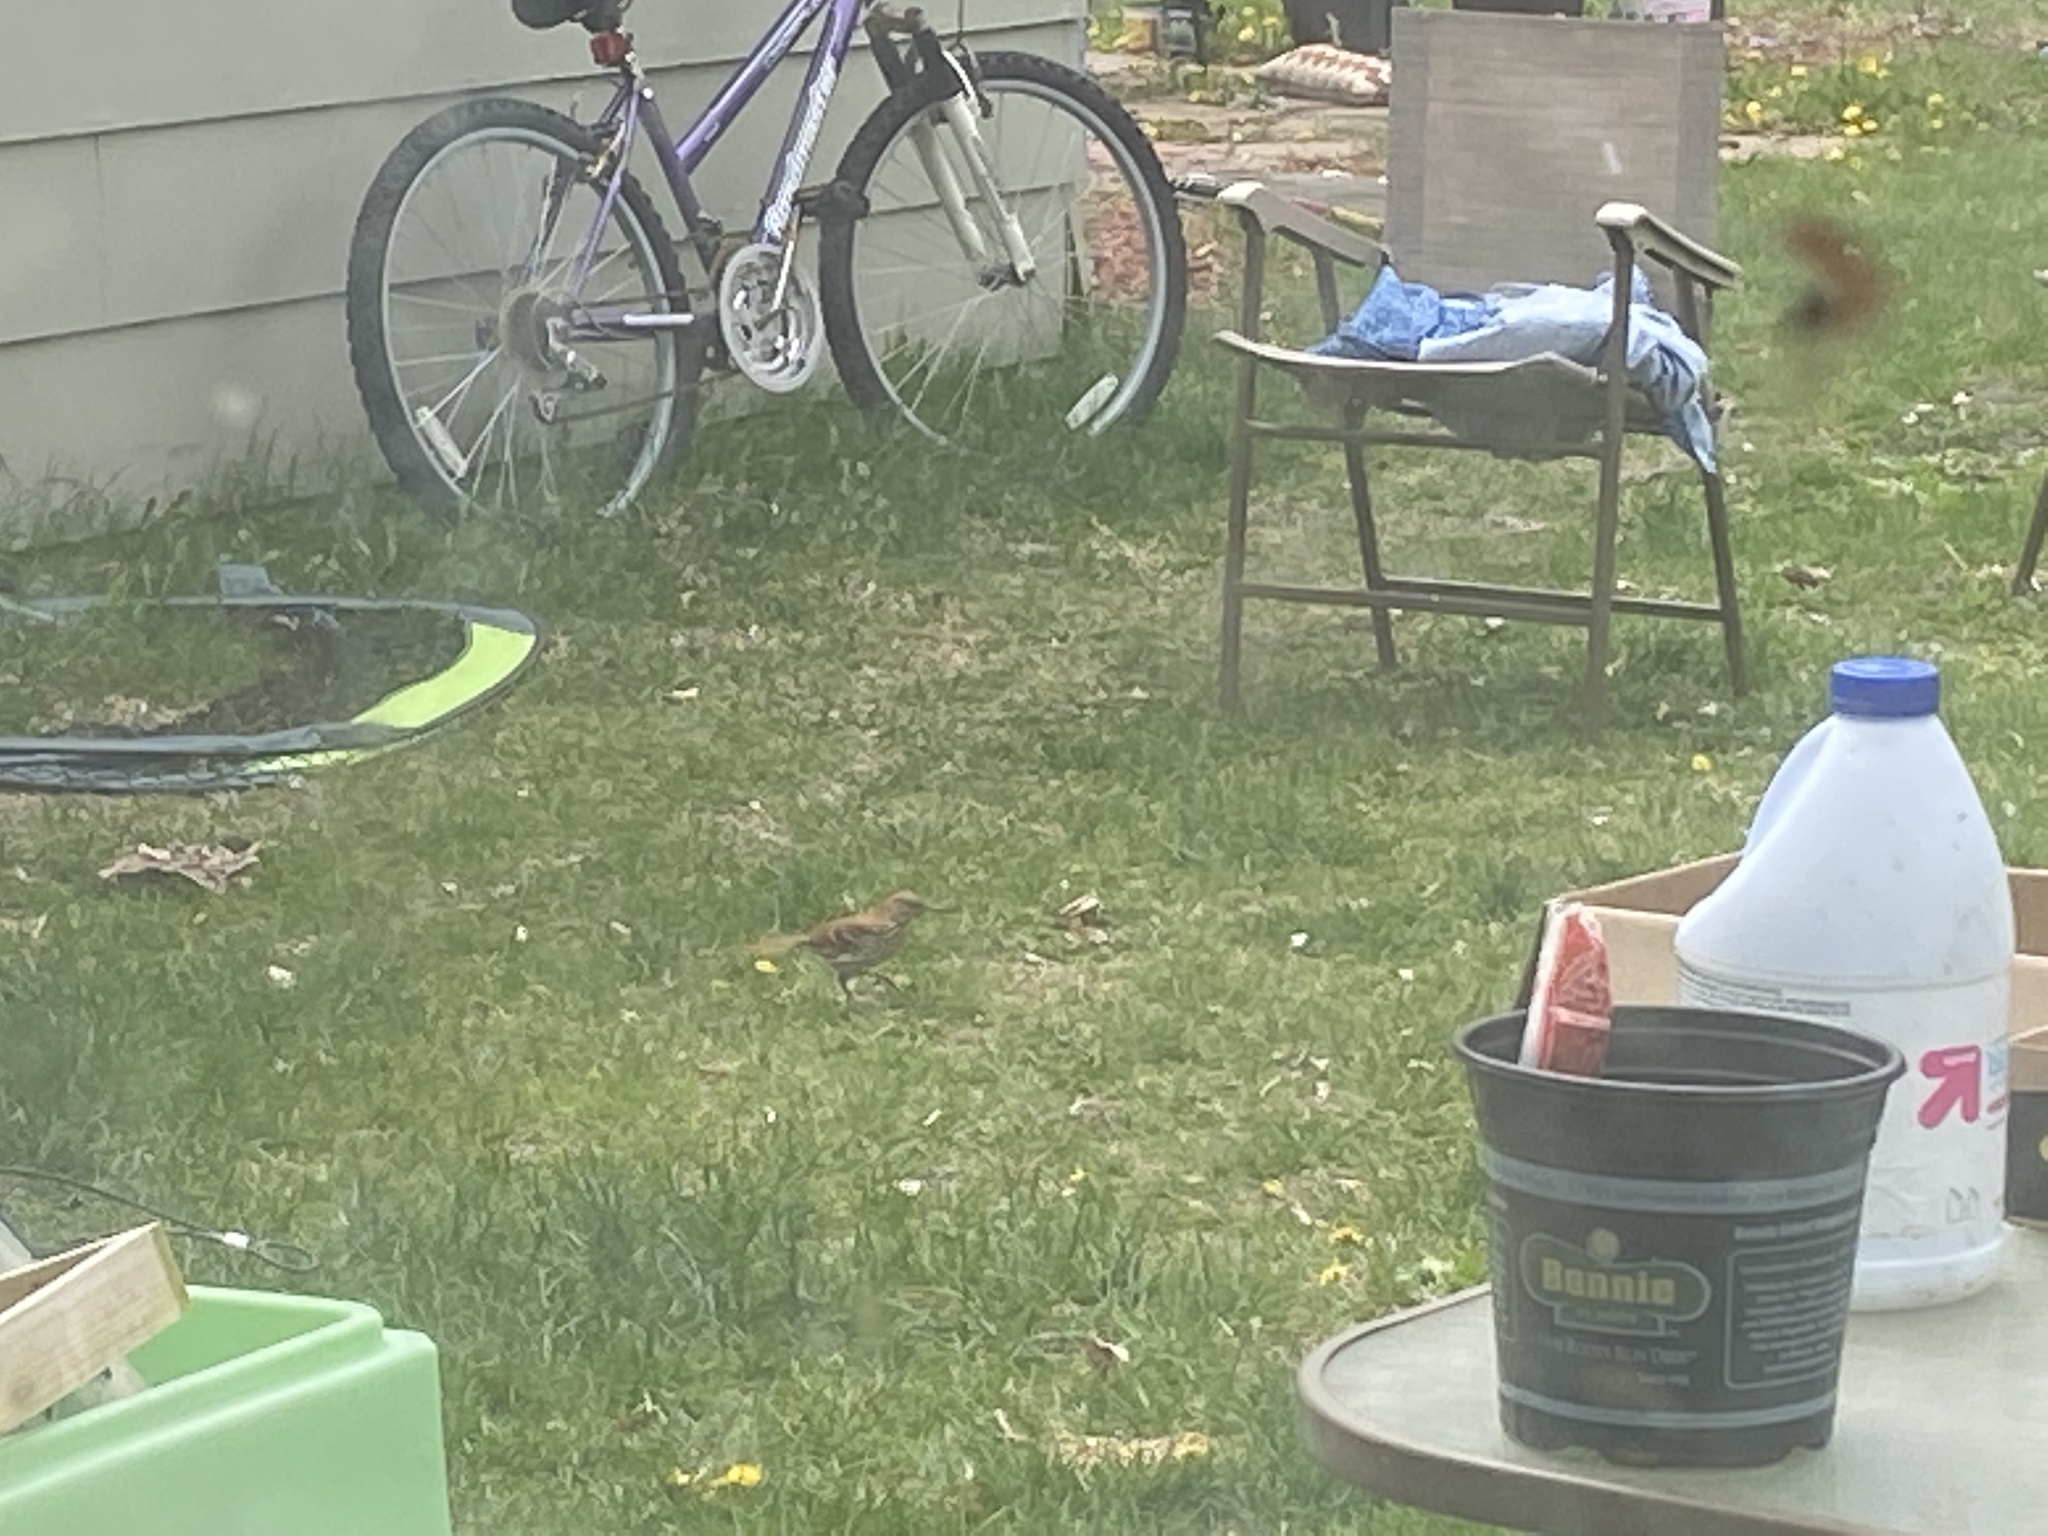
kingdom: Animalia
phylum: Chordata
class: Aves
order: Passeriformes
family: Mimidae
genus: Toxostoma
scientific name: Toxostoma rufum
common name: Brown thrasher
